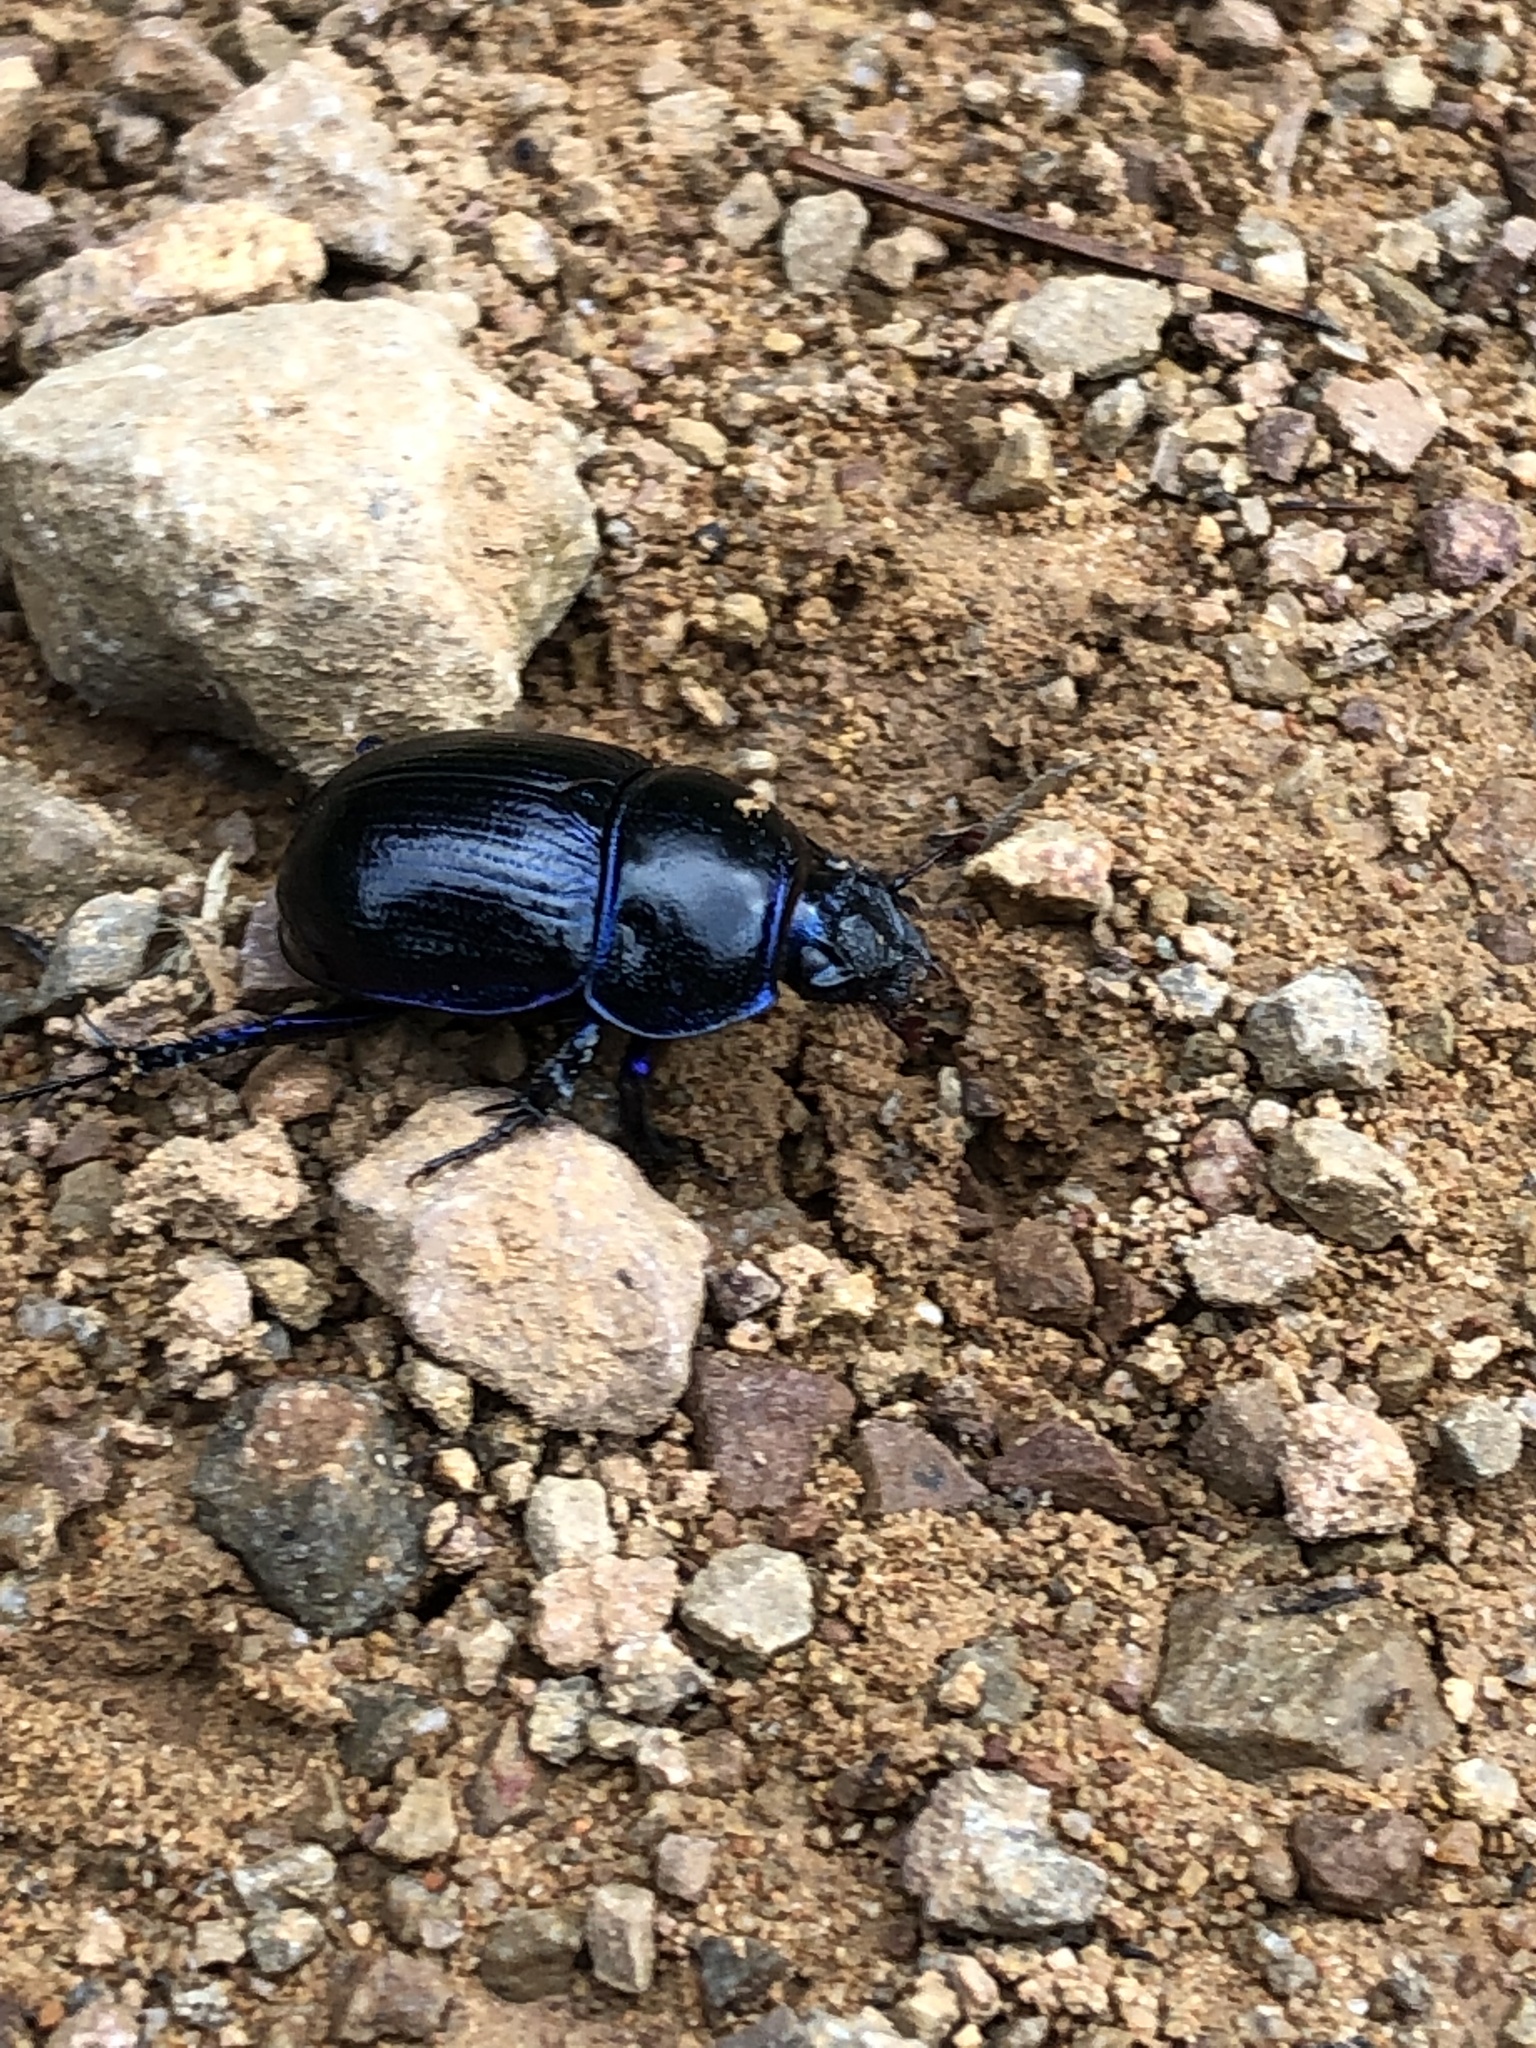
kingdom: Animalia
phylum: Arthropoda
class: Insecta
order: Coleoptera
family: Geotrupidae
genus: Anoplotrupes
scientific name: Anoplotrupes stercorosus
